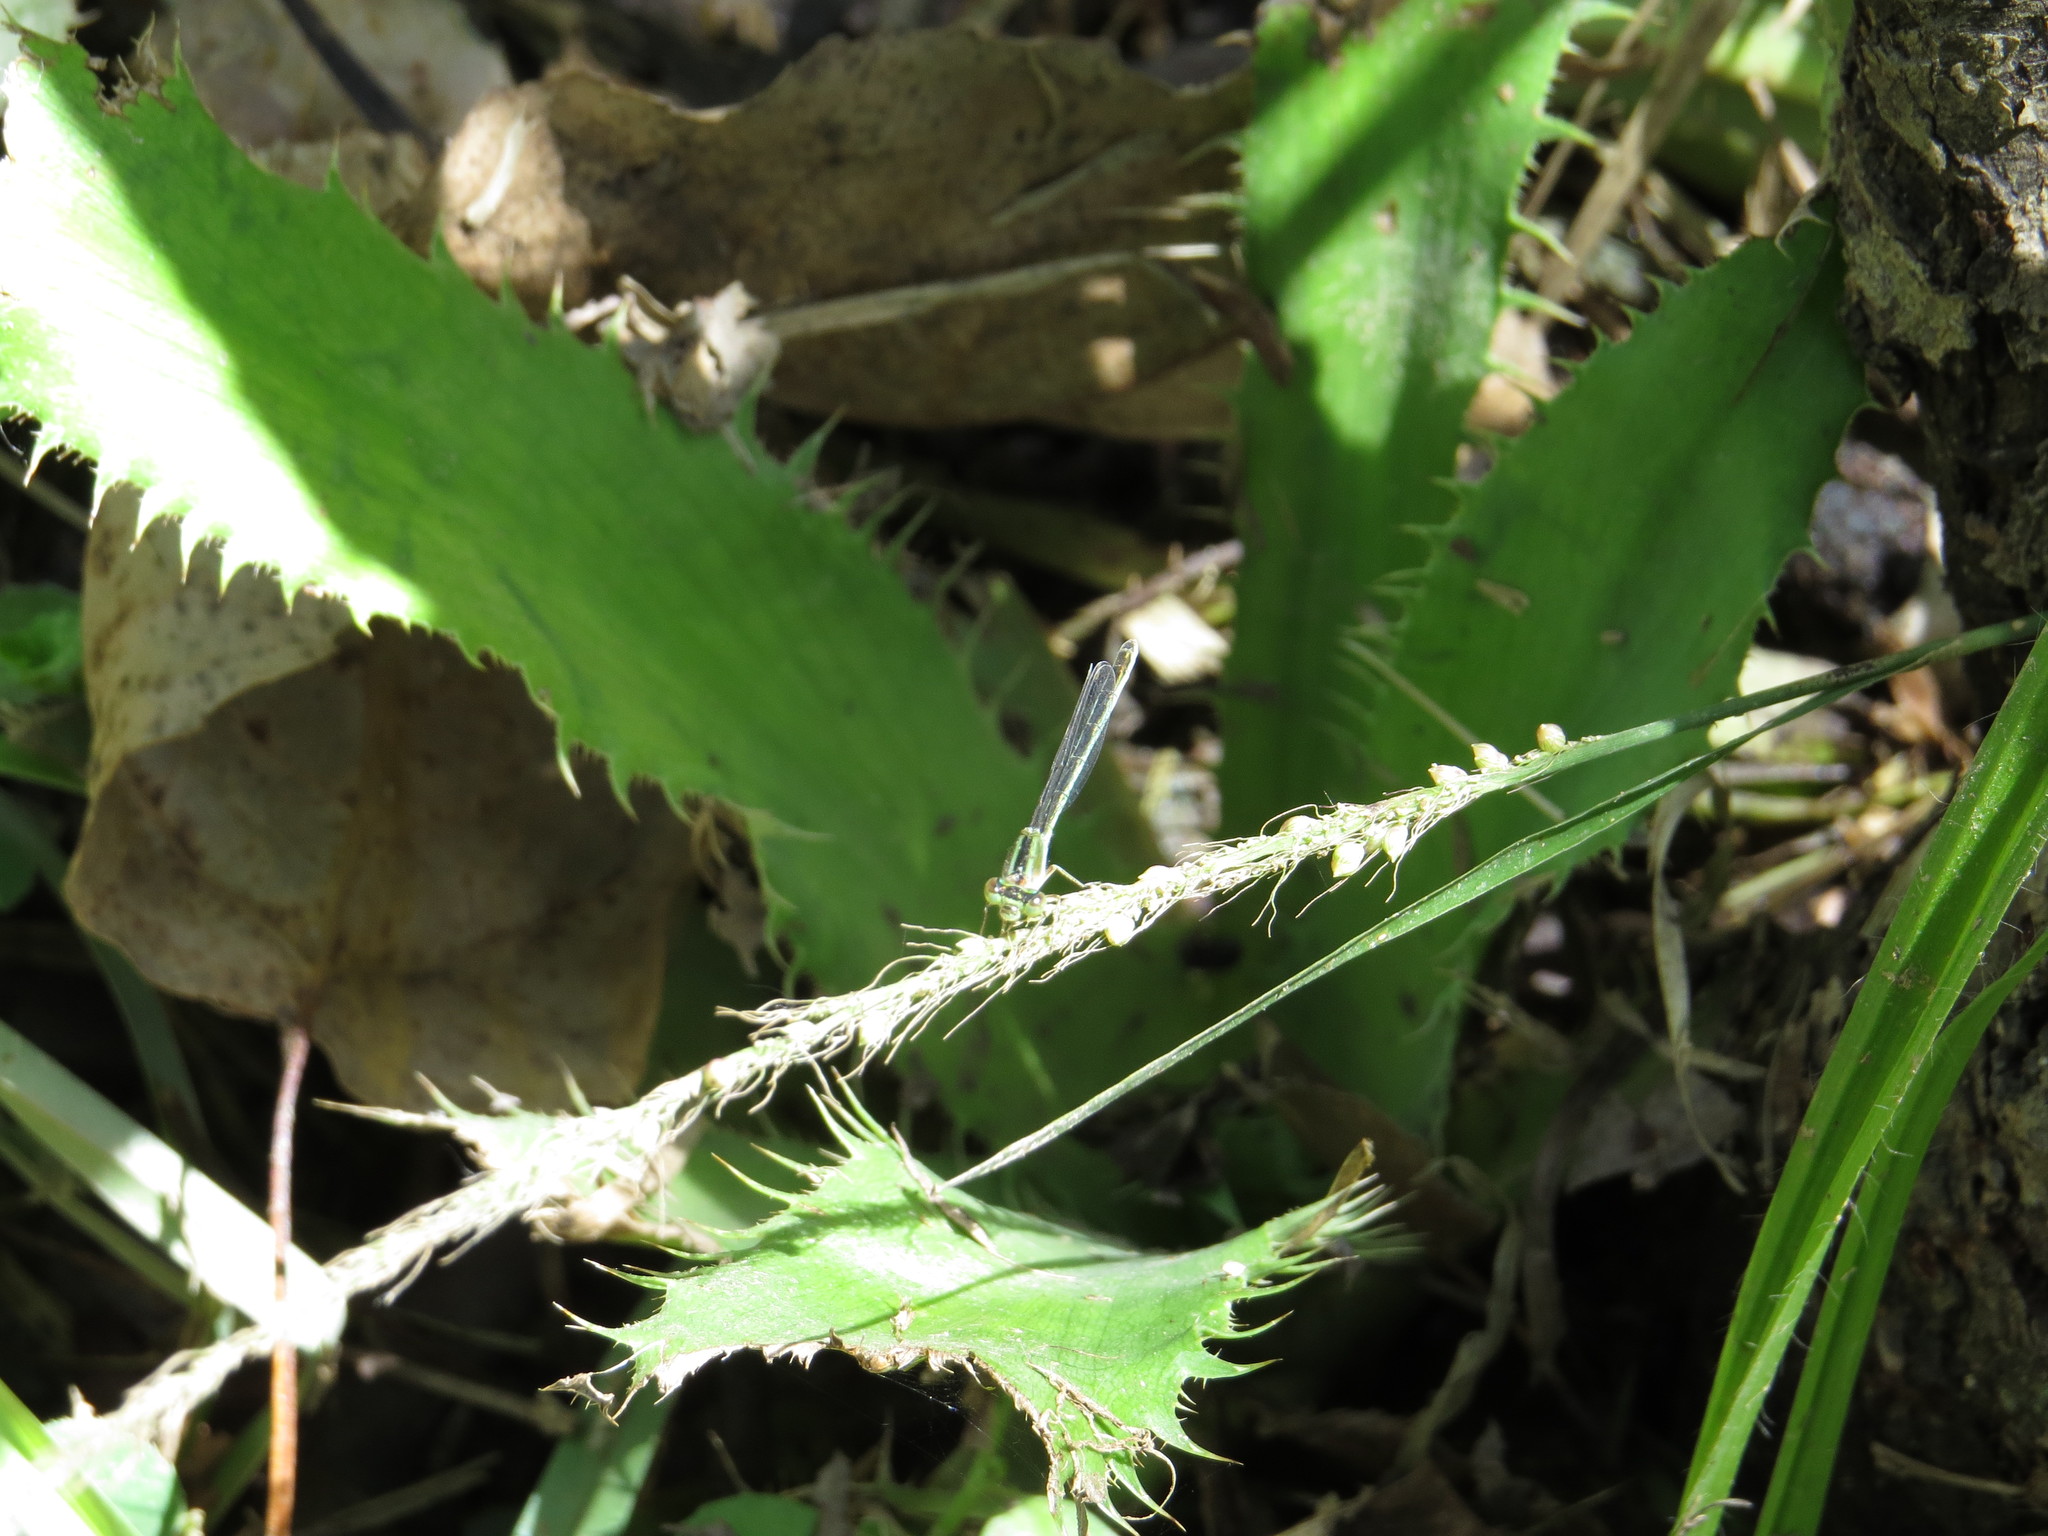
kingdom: Animalia
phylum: Arthropoda
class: Insecta
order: Odonata
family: Coenagrionidae
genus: Ischnura
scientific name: Ischnura fluviatilis
